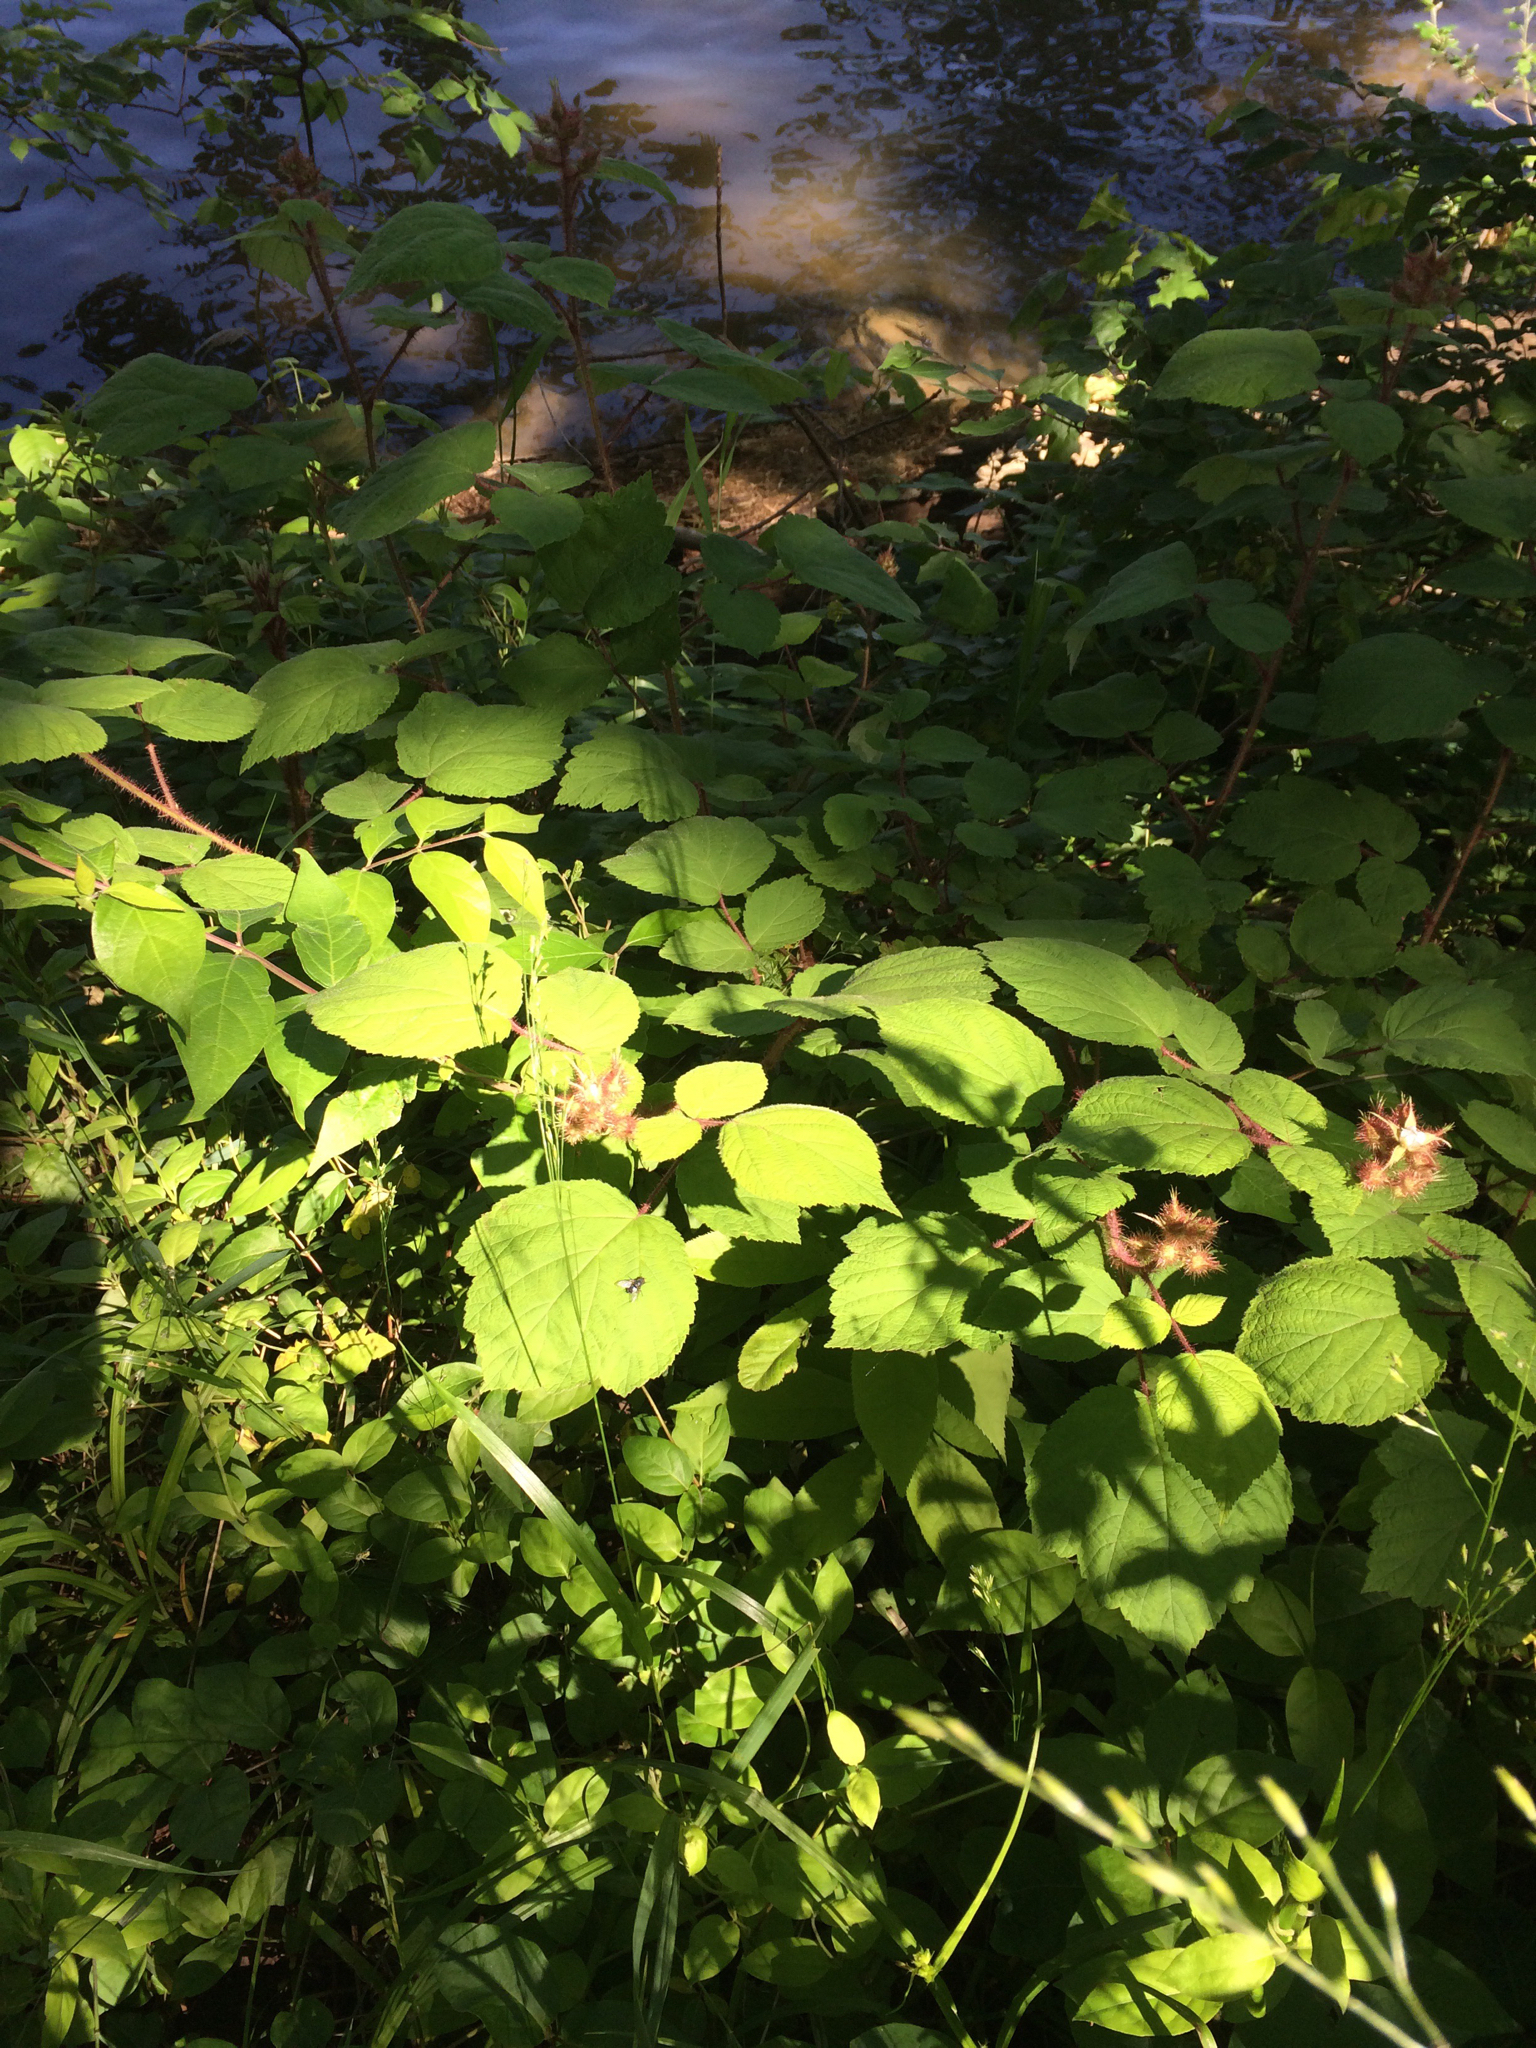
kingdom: Plantae
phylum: Tracheophyta
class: Magnoliopsida
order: Rosales
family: Rosaceae
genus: Rubus
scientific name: Rubus phoenicolasius
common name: Japanese wineberry
